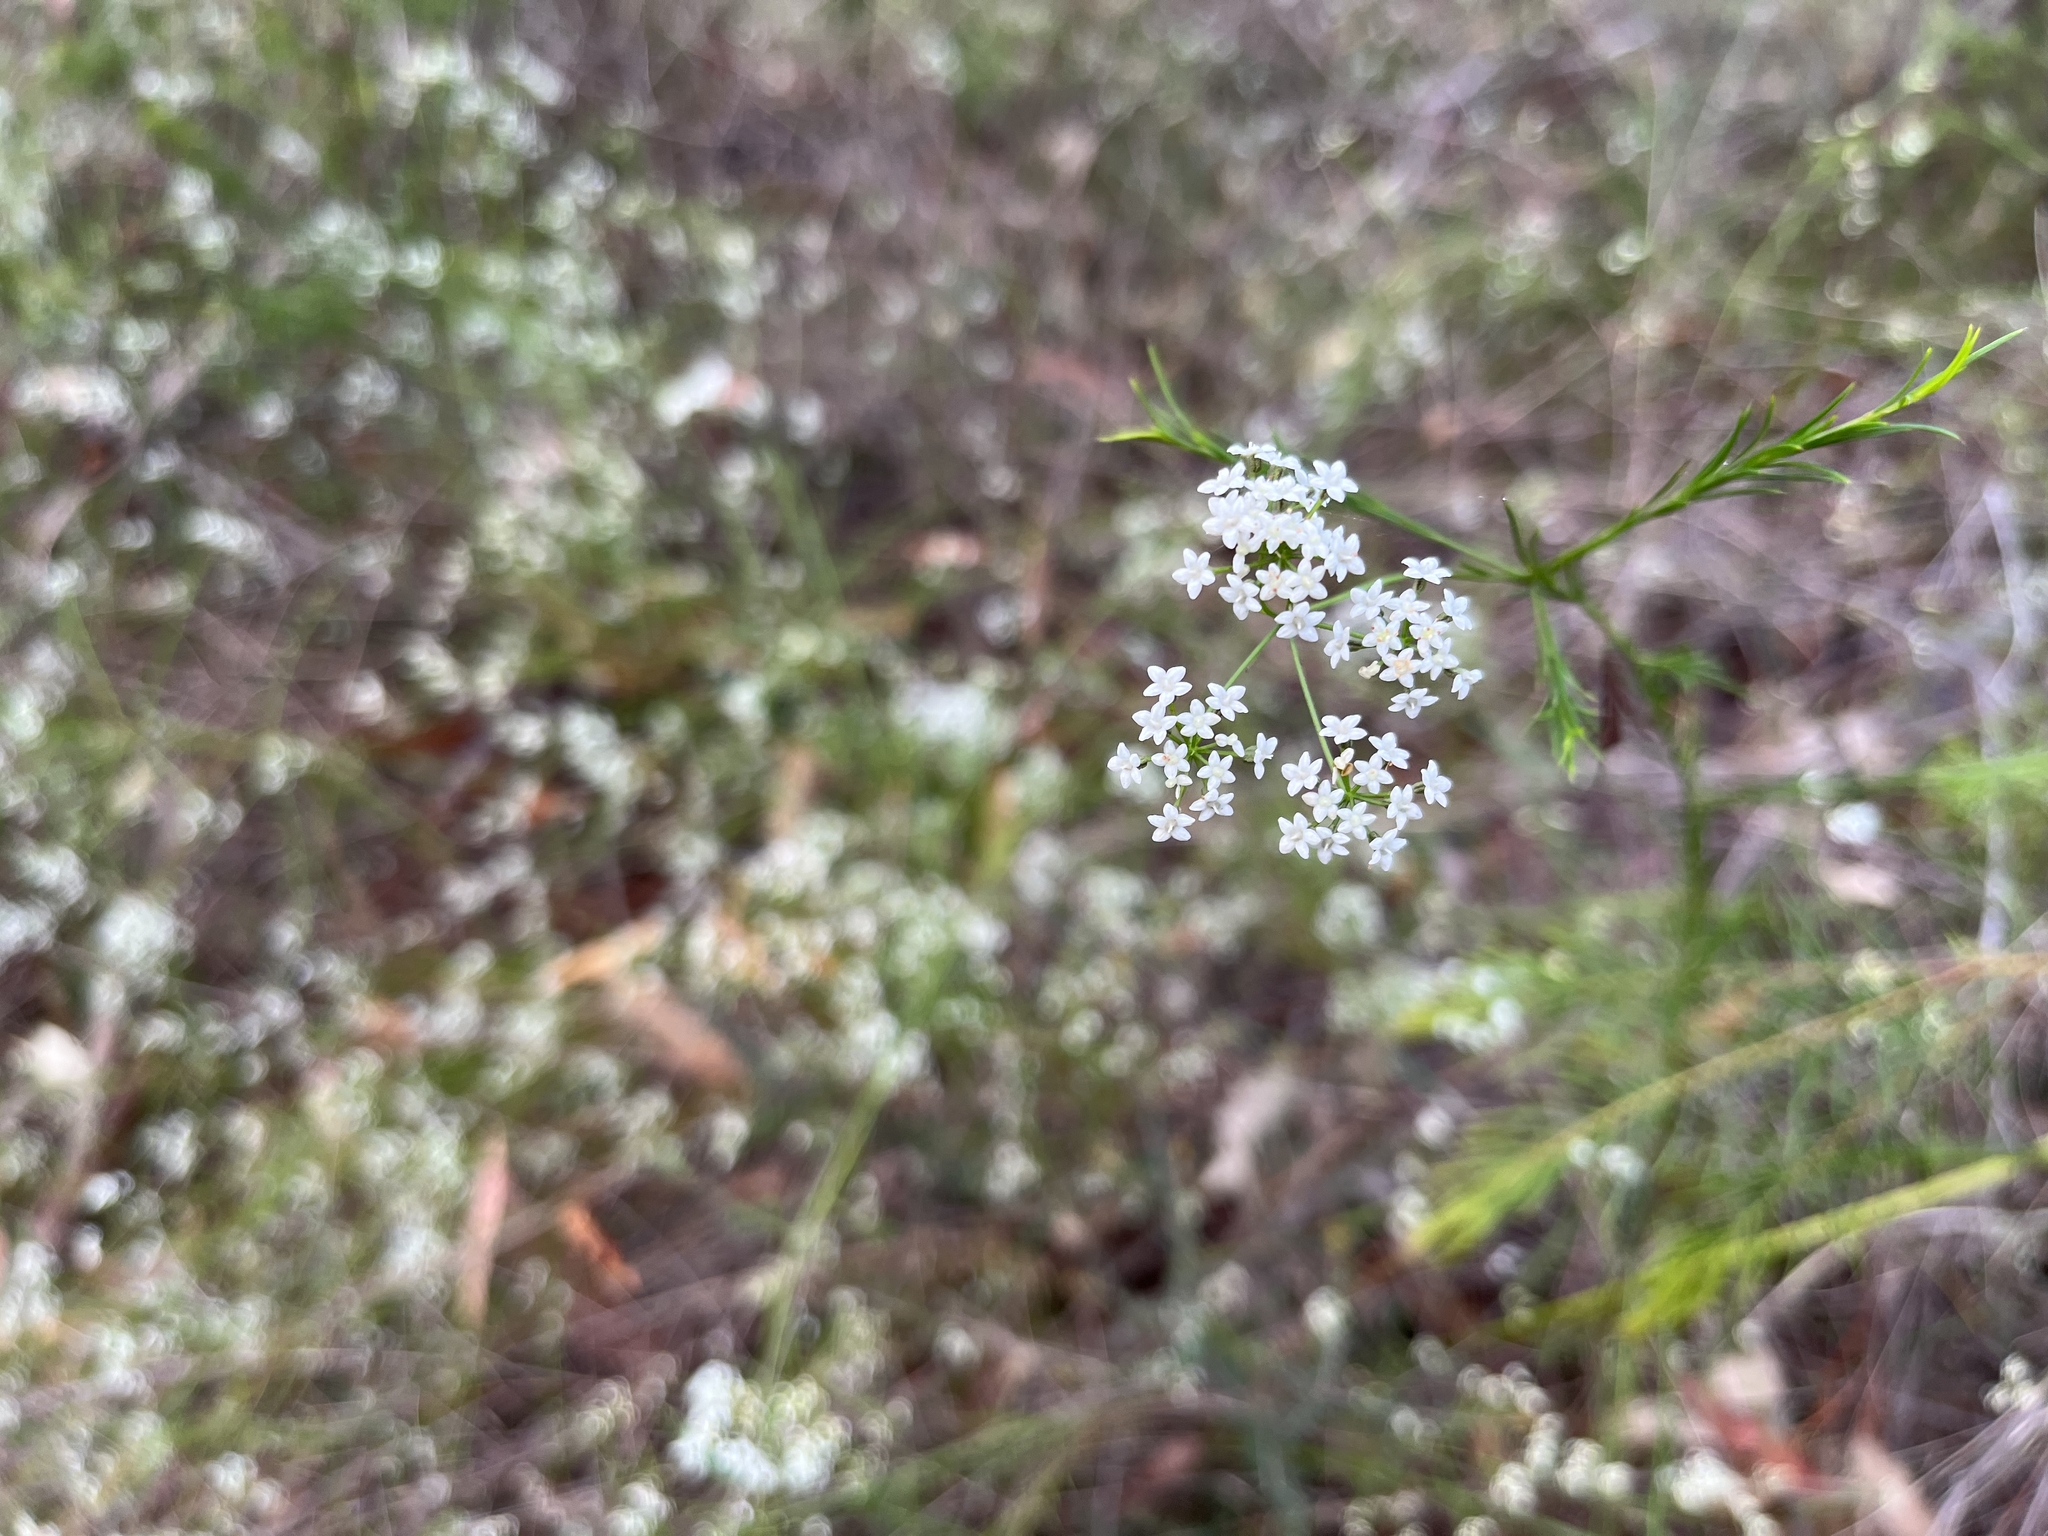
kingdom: Plantae
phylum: Tracheophyta
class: Magnoliopsida
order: Apiales
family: Apiaceae
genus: Platysace
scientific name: Platysace linearifolia
